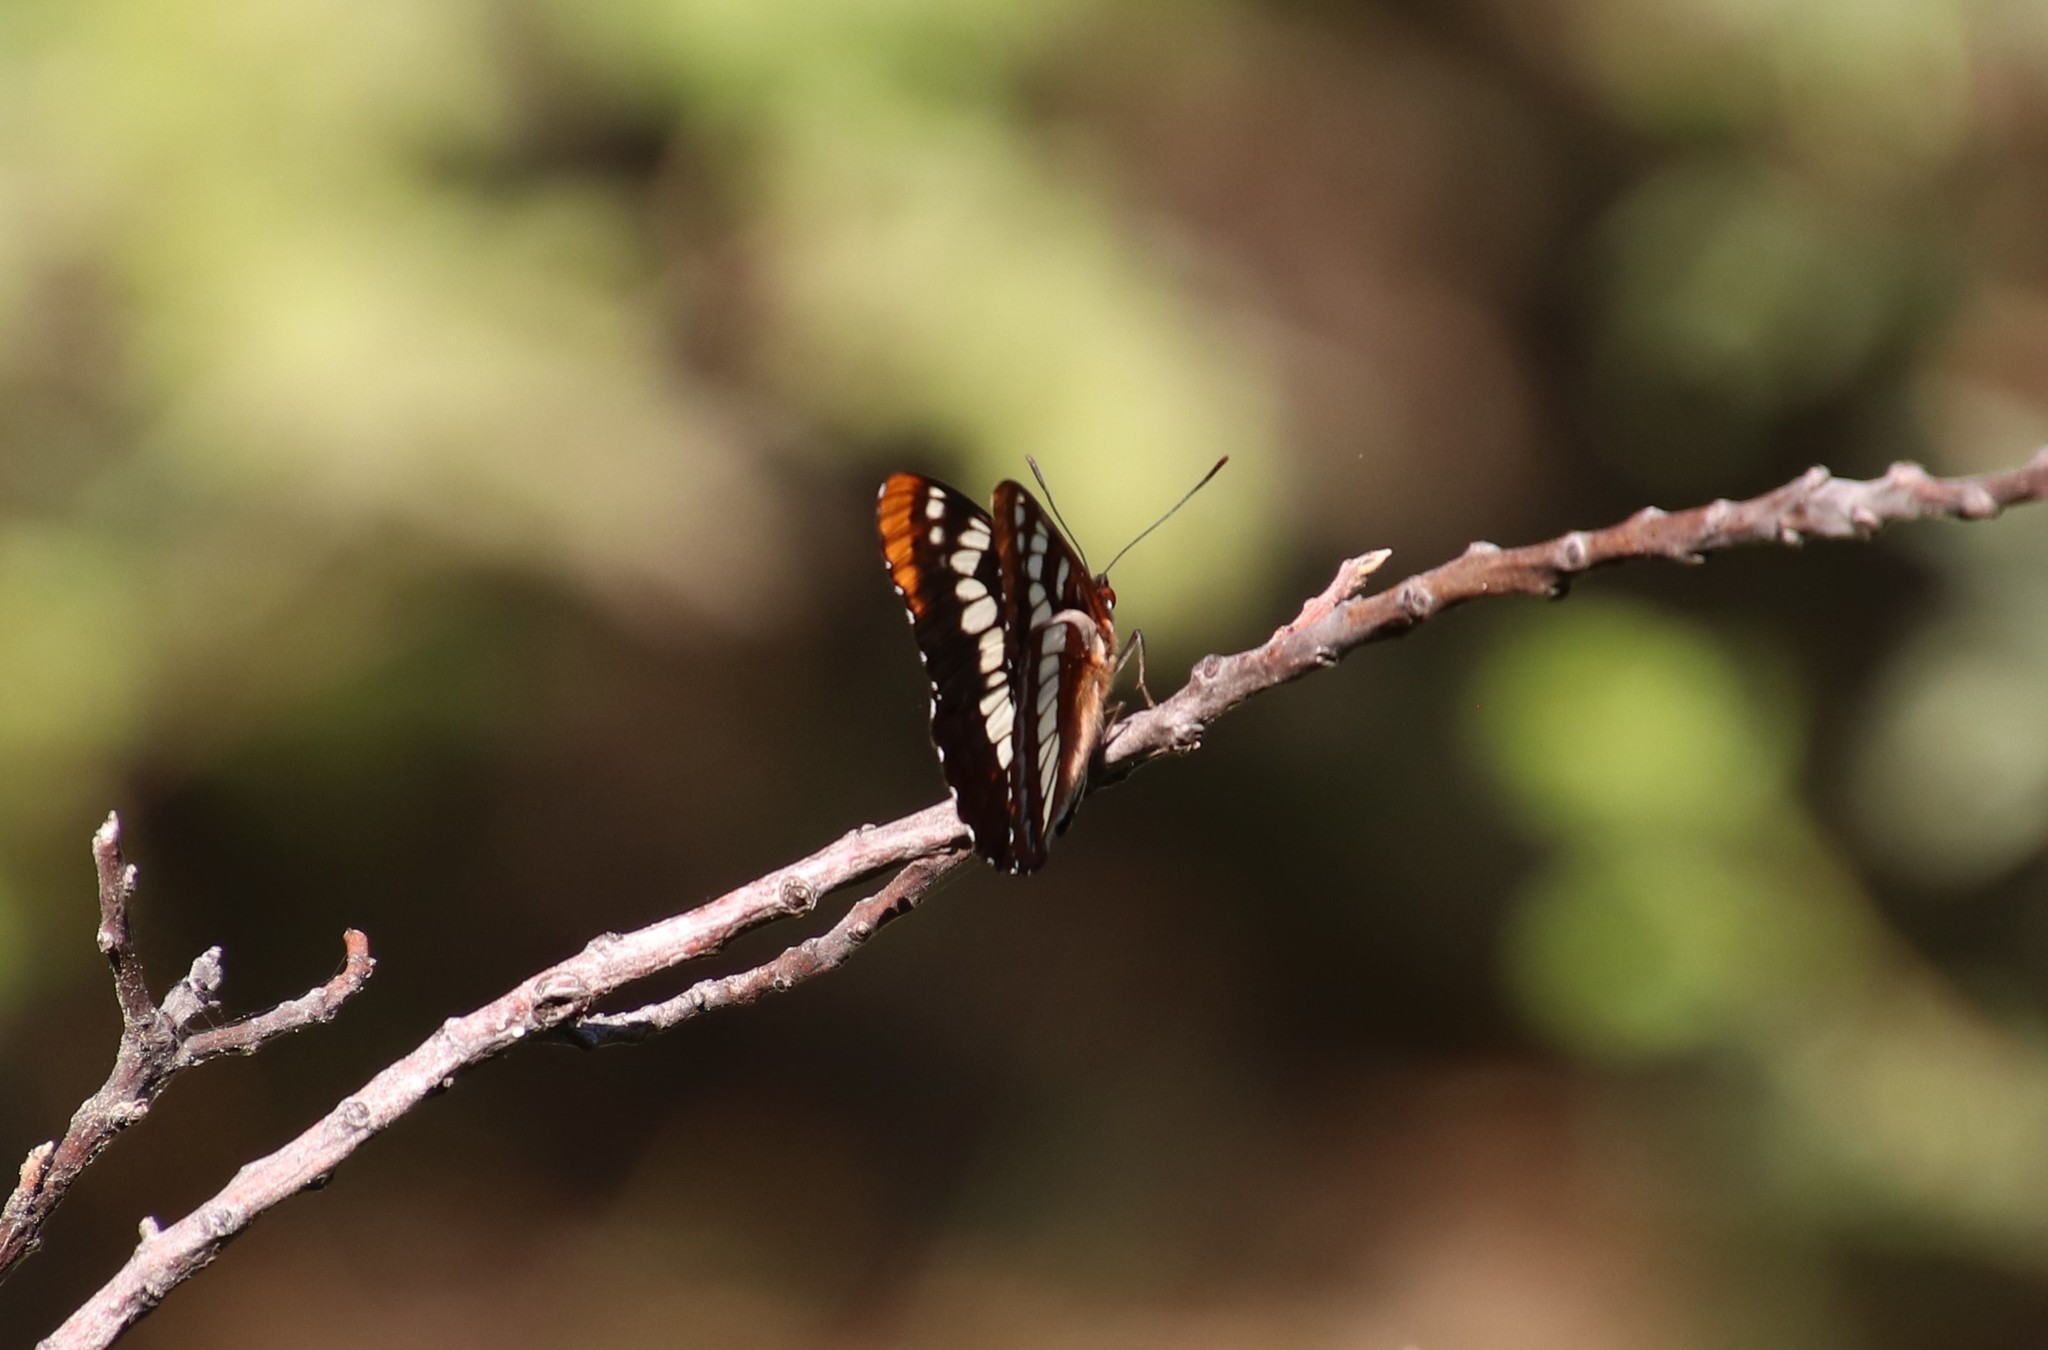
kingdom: Animalia
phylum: Arthropoda
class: Insecta
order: Lepidoptera
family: Nymphalidae
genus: Limenitis
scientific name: Limenitis lorquini
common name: Lorquin's admiral
